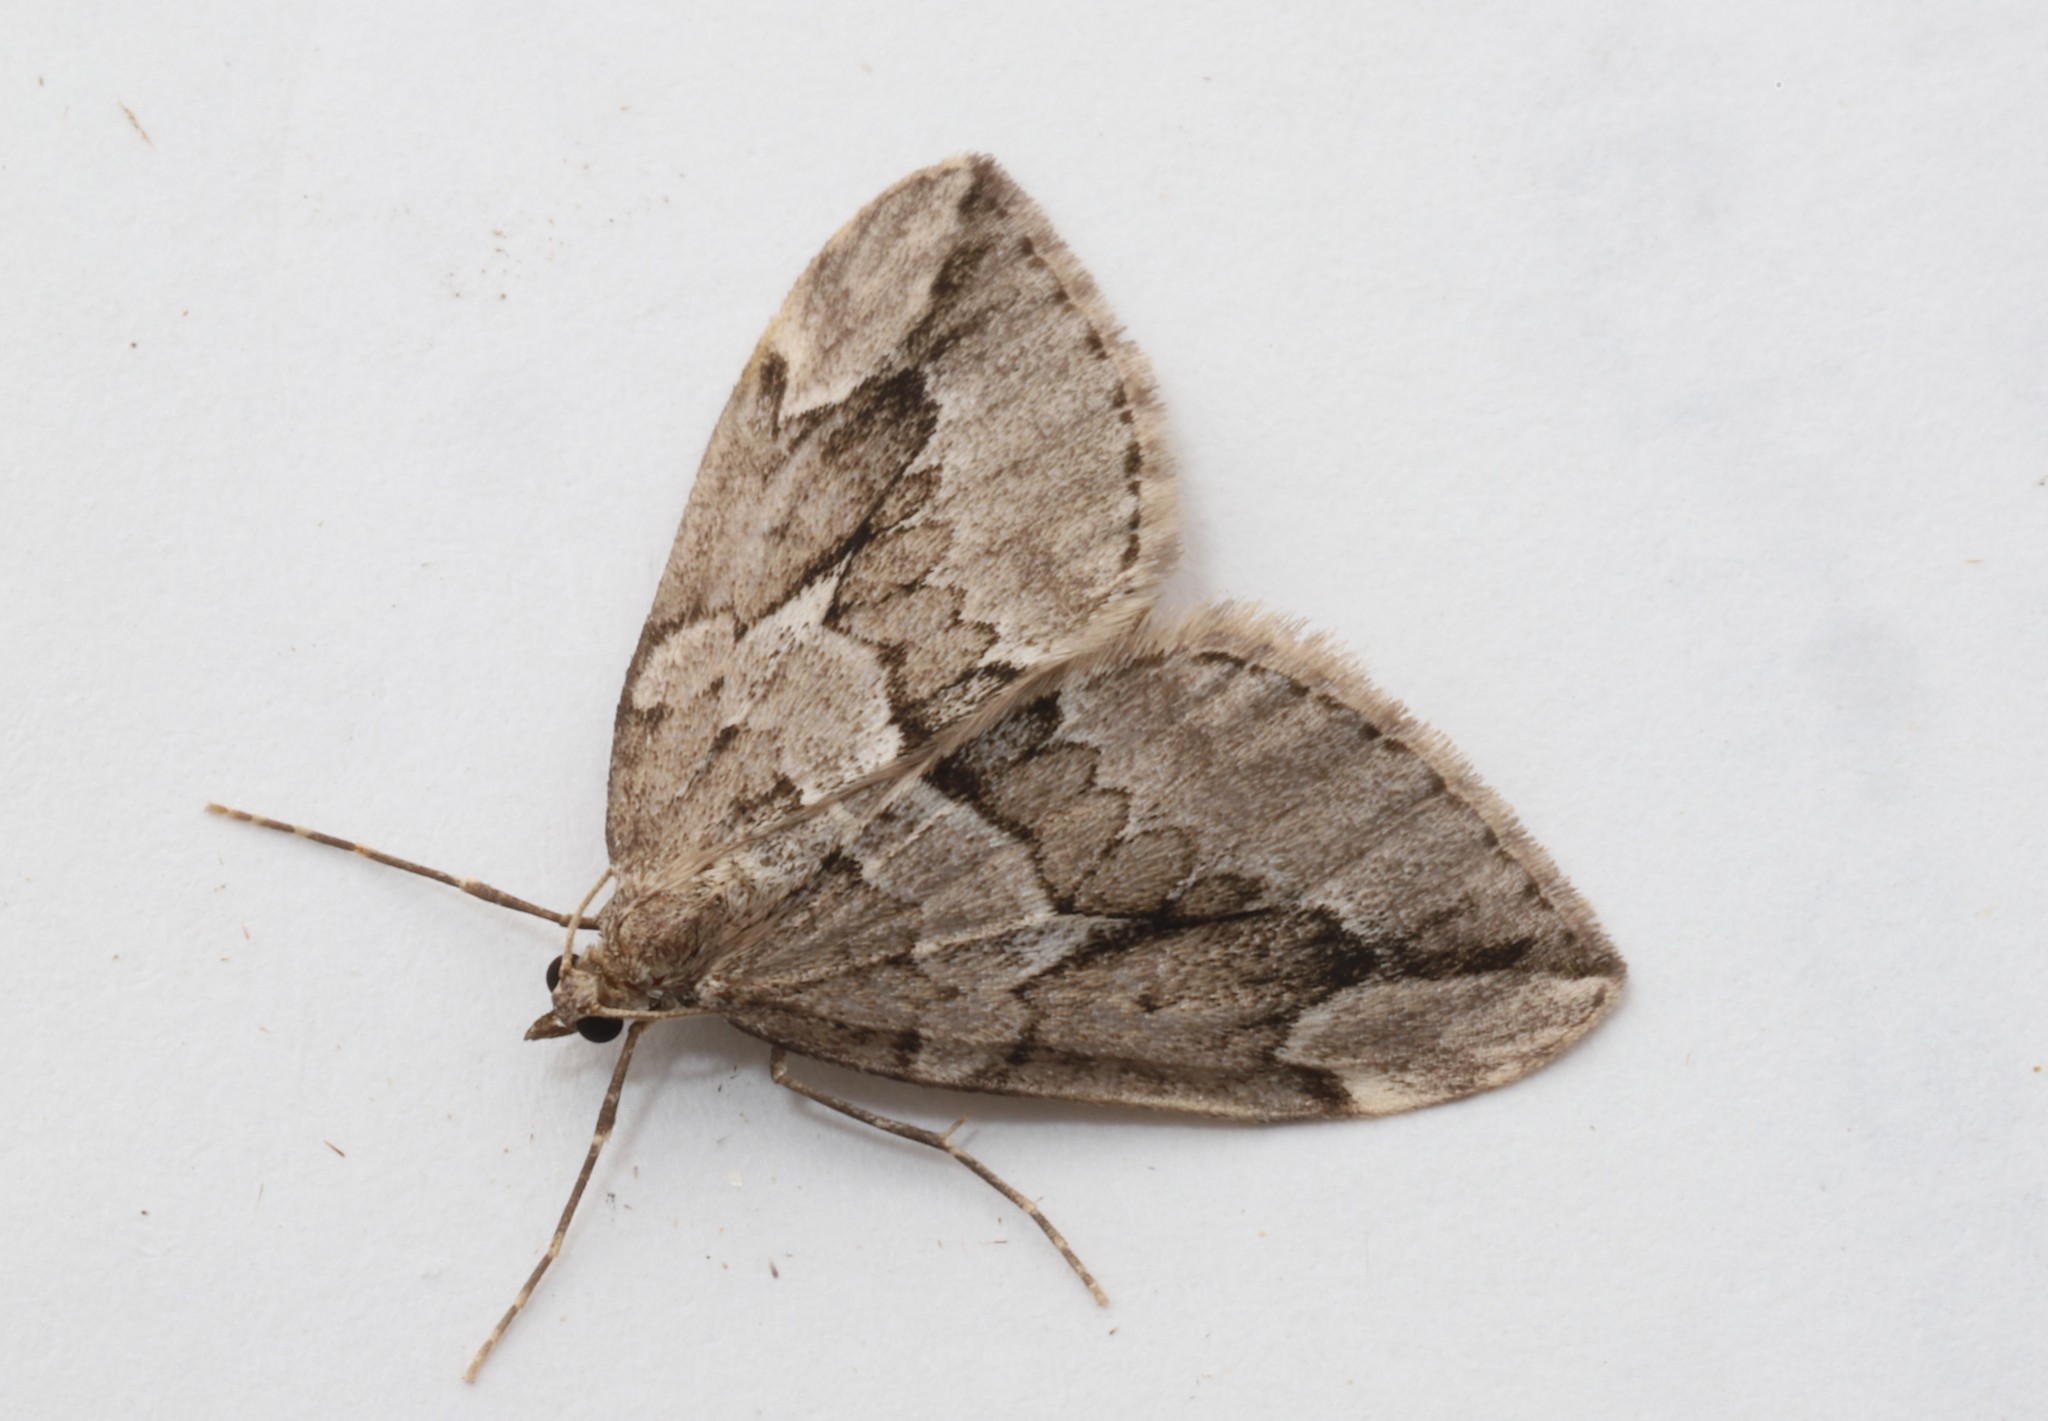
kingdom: Animalia
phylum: Arthropoda
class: Insecta
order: Lepidoptera
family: Geometridae
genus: Thera
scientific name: Thera juniperata
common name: Juniper carpet
